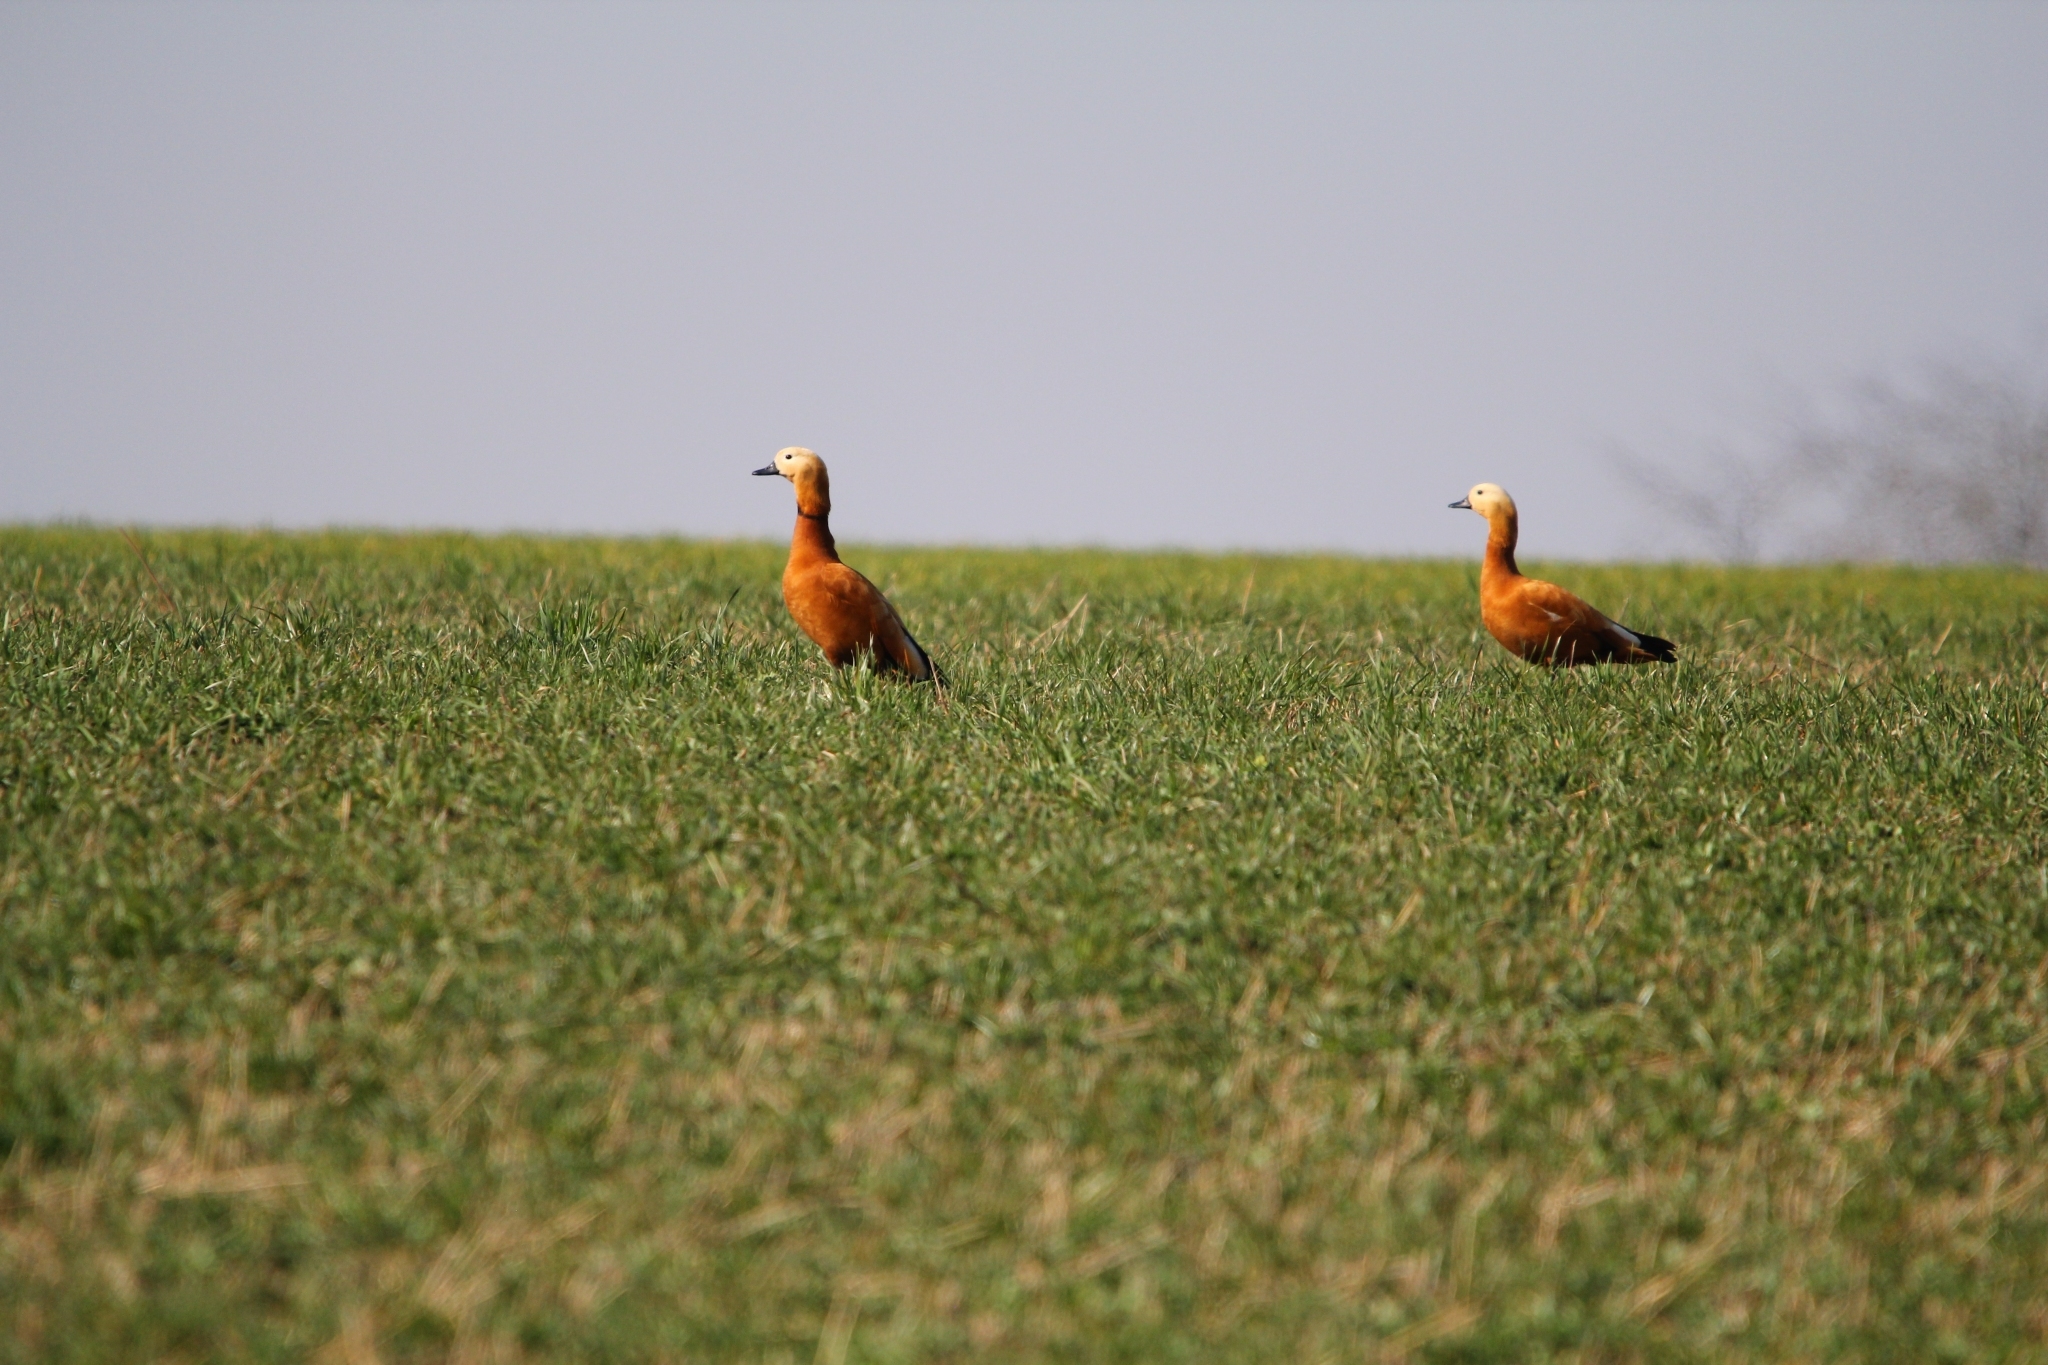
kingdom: Animalia
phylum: Chordata
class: Aves
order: Anseriformes
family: Anatidae
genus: Tadorna
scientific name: Tadorna ferruginea
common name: Ruddy shelduck
